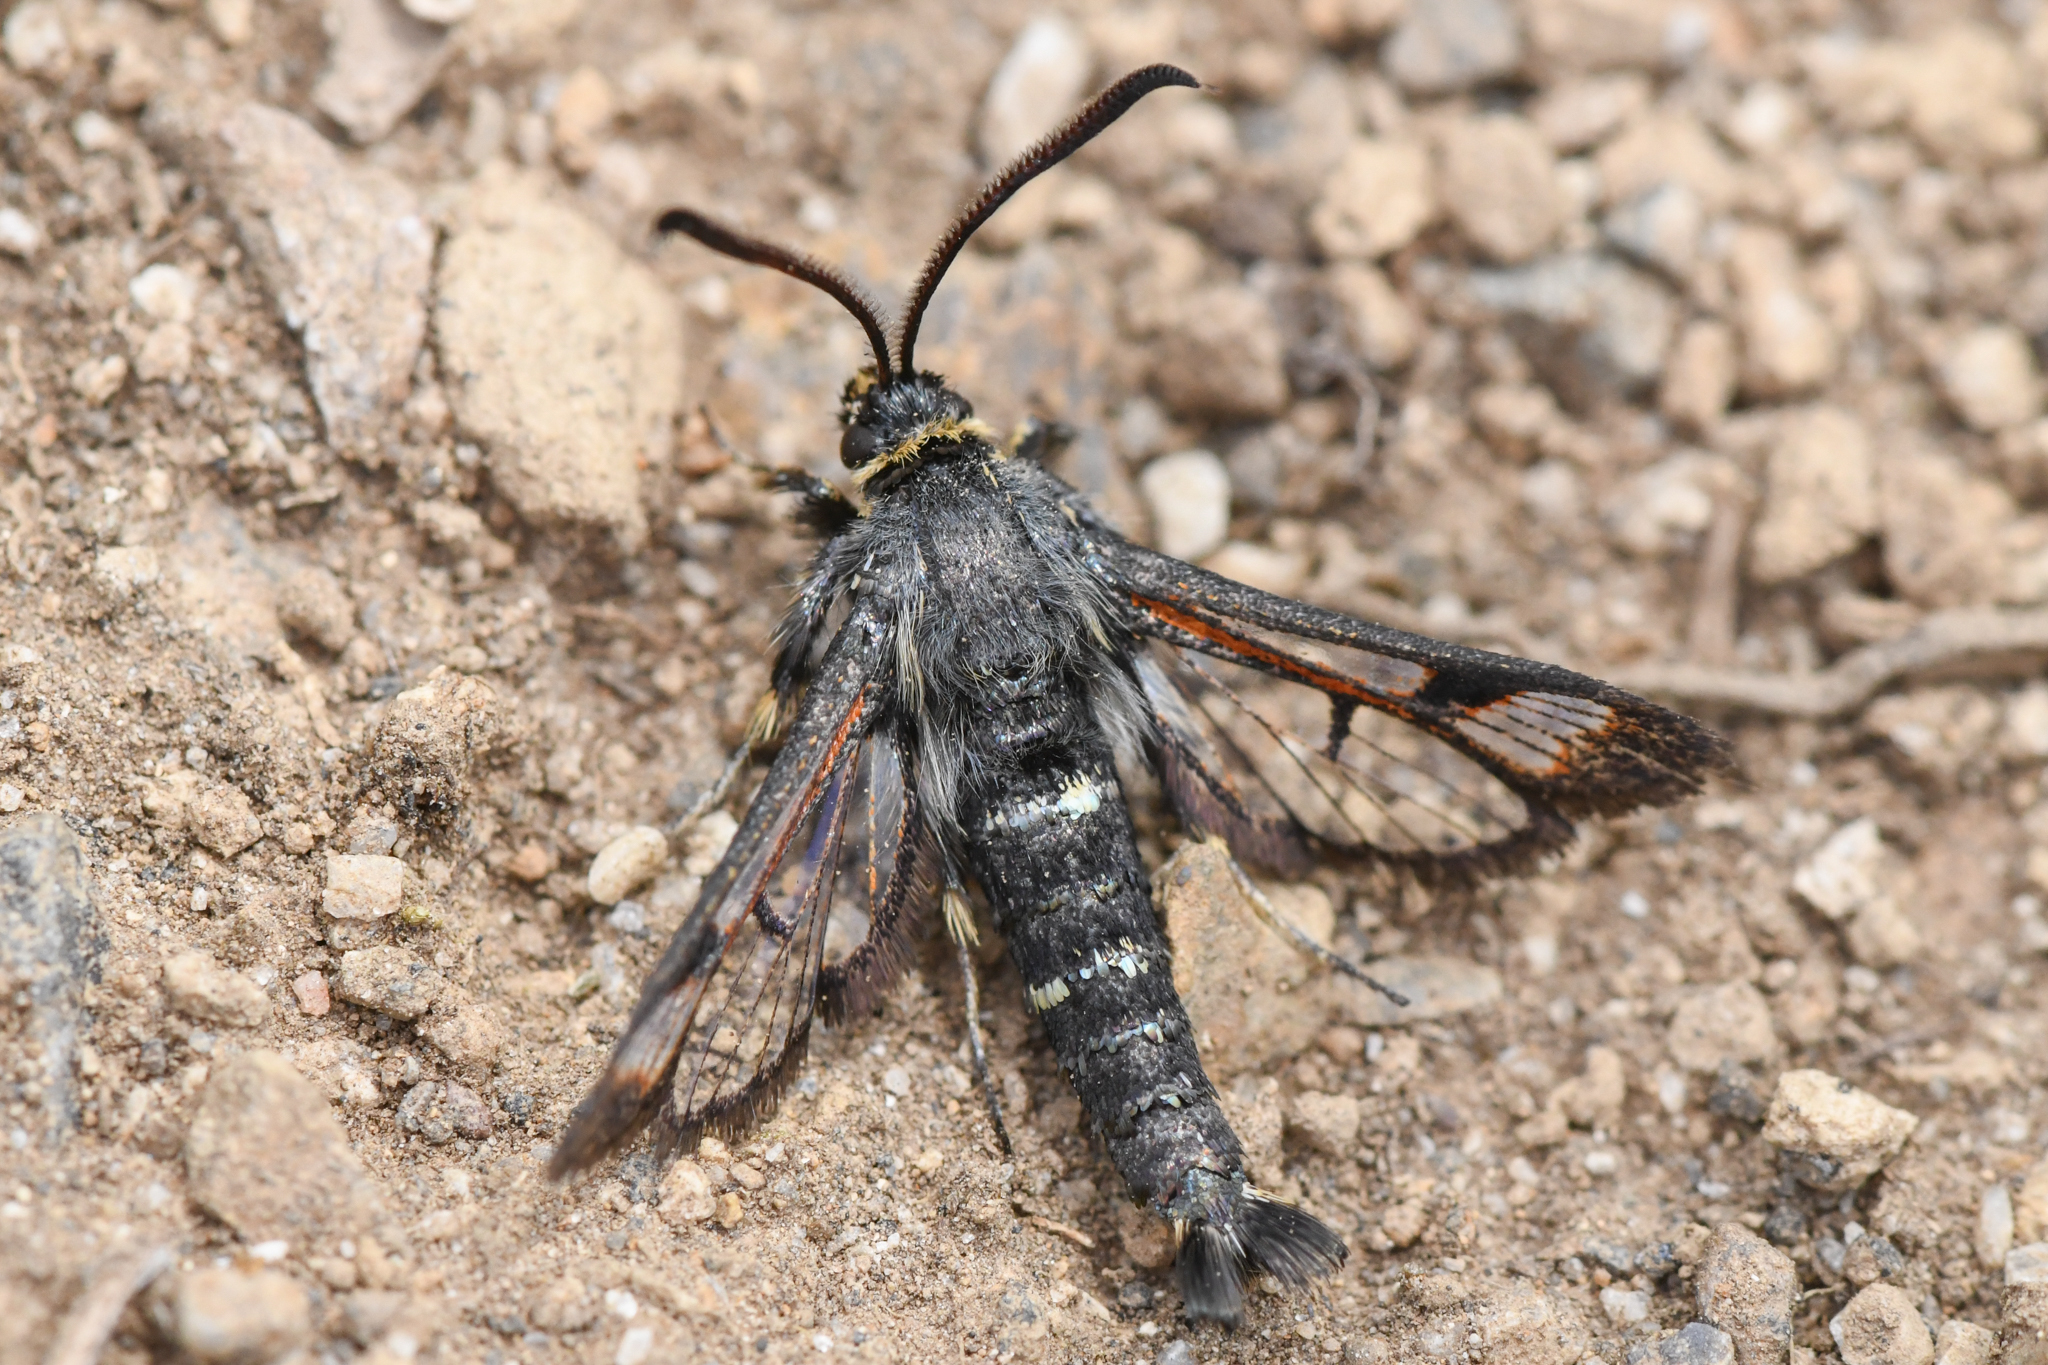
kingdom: Animalia
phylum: Arthropoda
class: Insecta
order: Lepidoptera
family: Sesiidae
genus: Albuna
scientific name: Albuna pyramidalis
